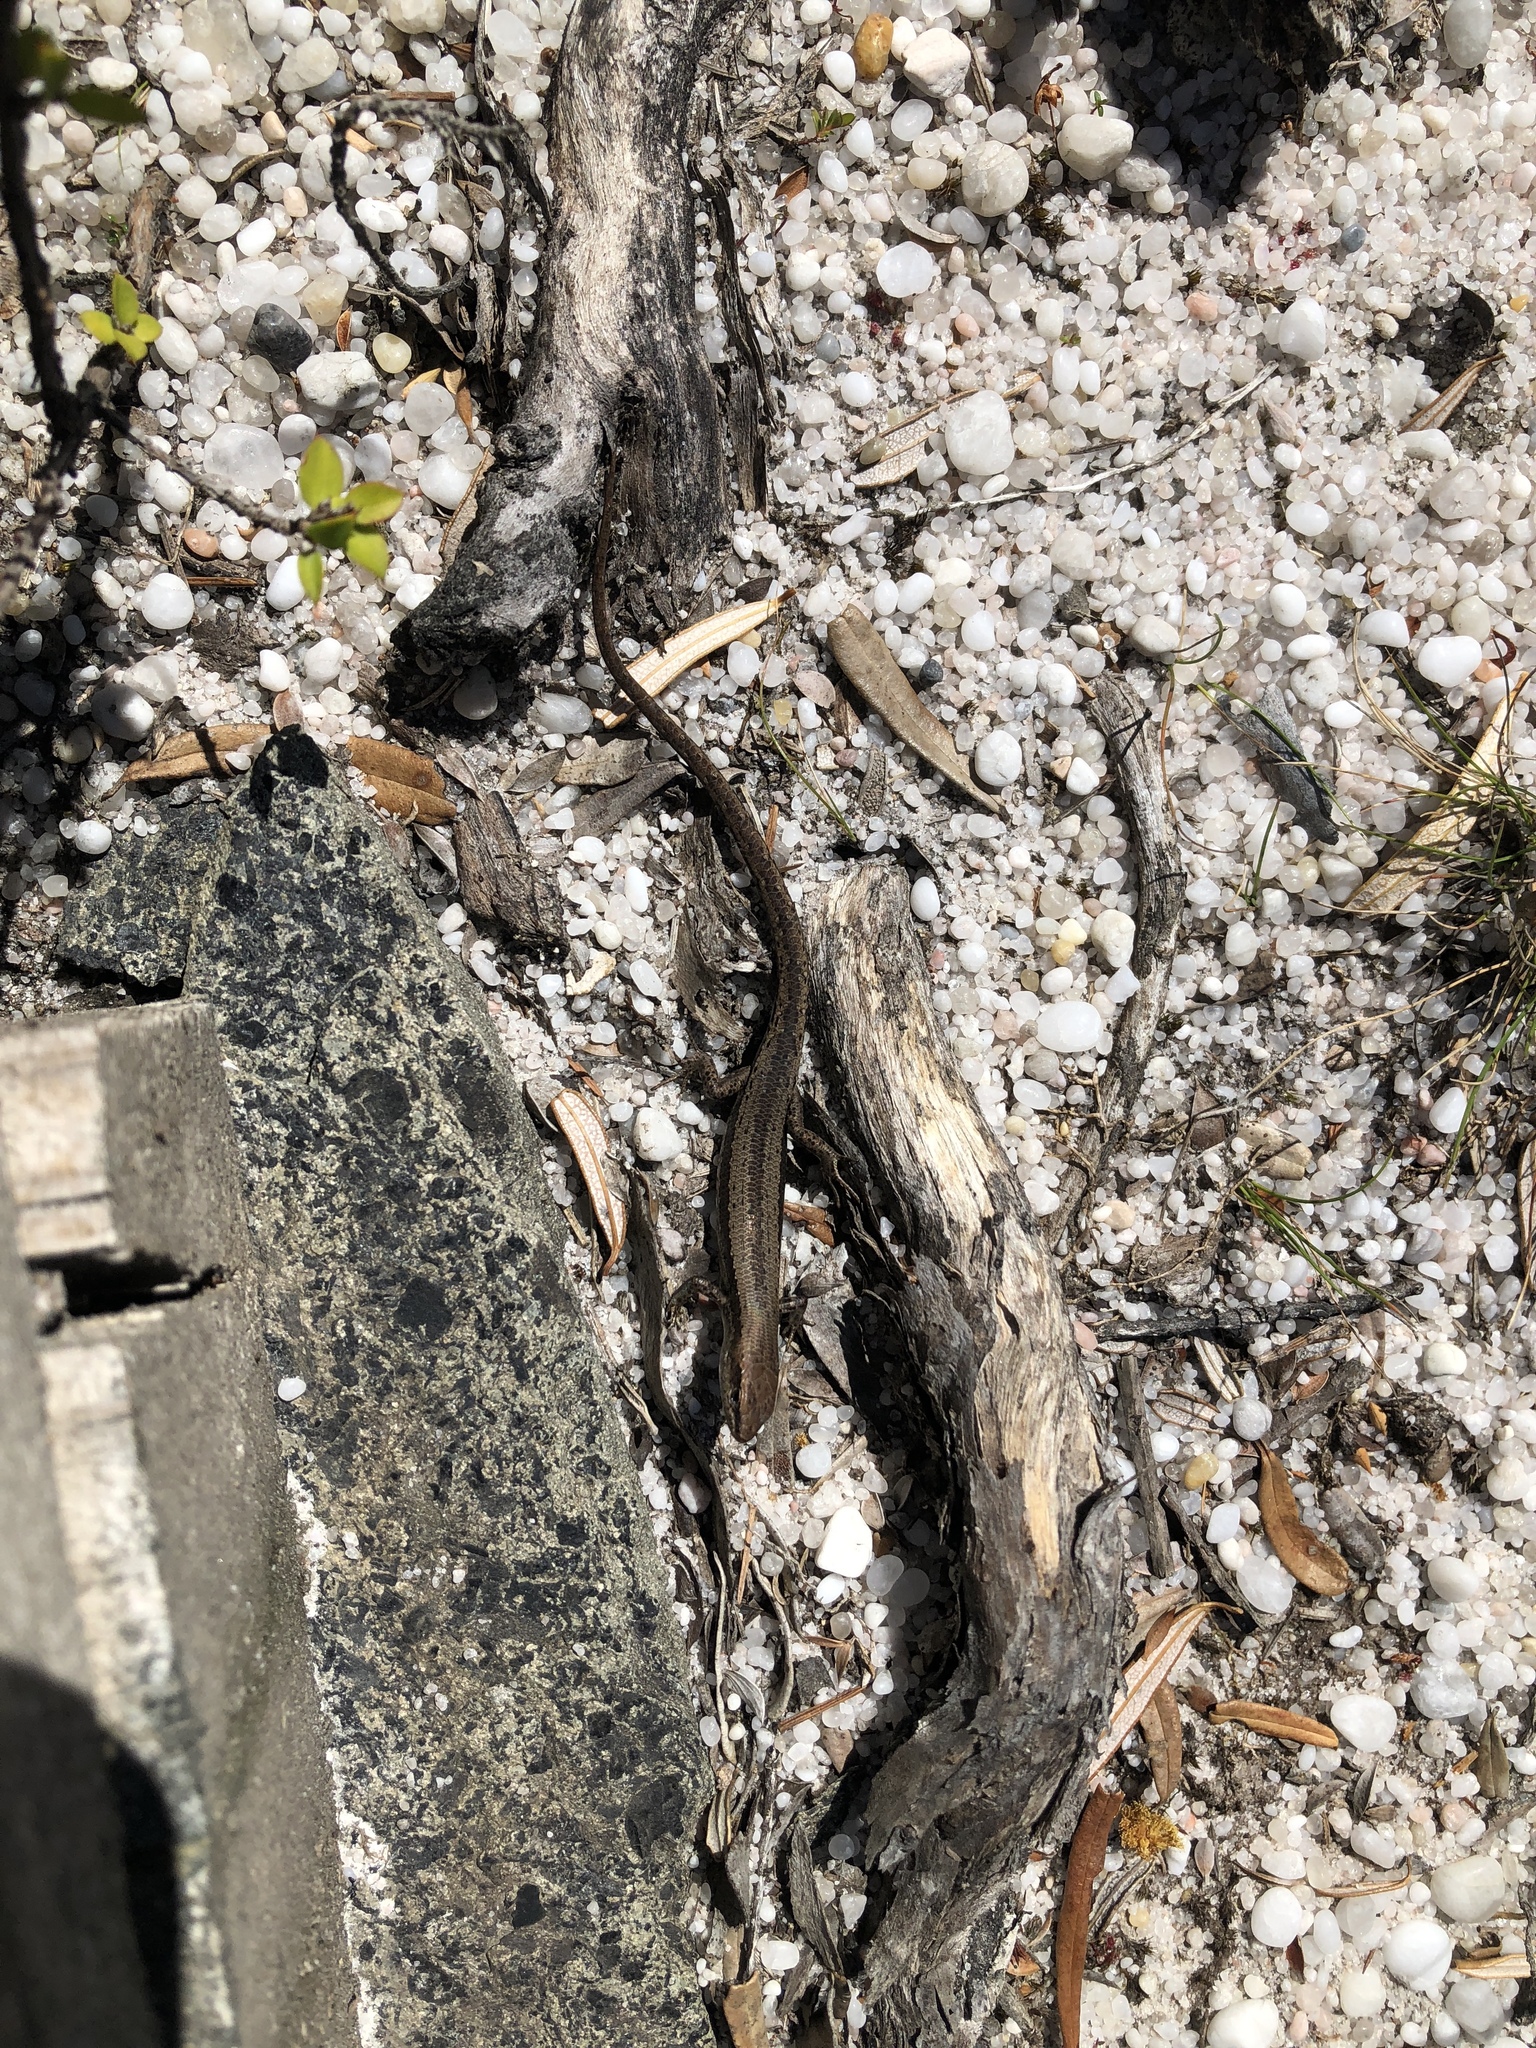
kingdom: Animalia
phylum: Chordata
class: Squamata
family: Scincidae
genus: Lampropholis
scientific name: Lampropholis guichenoti
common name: Garden skink
